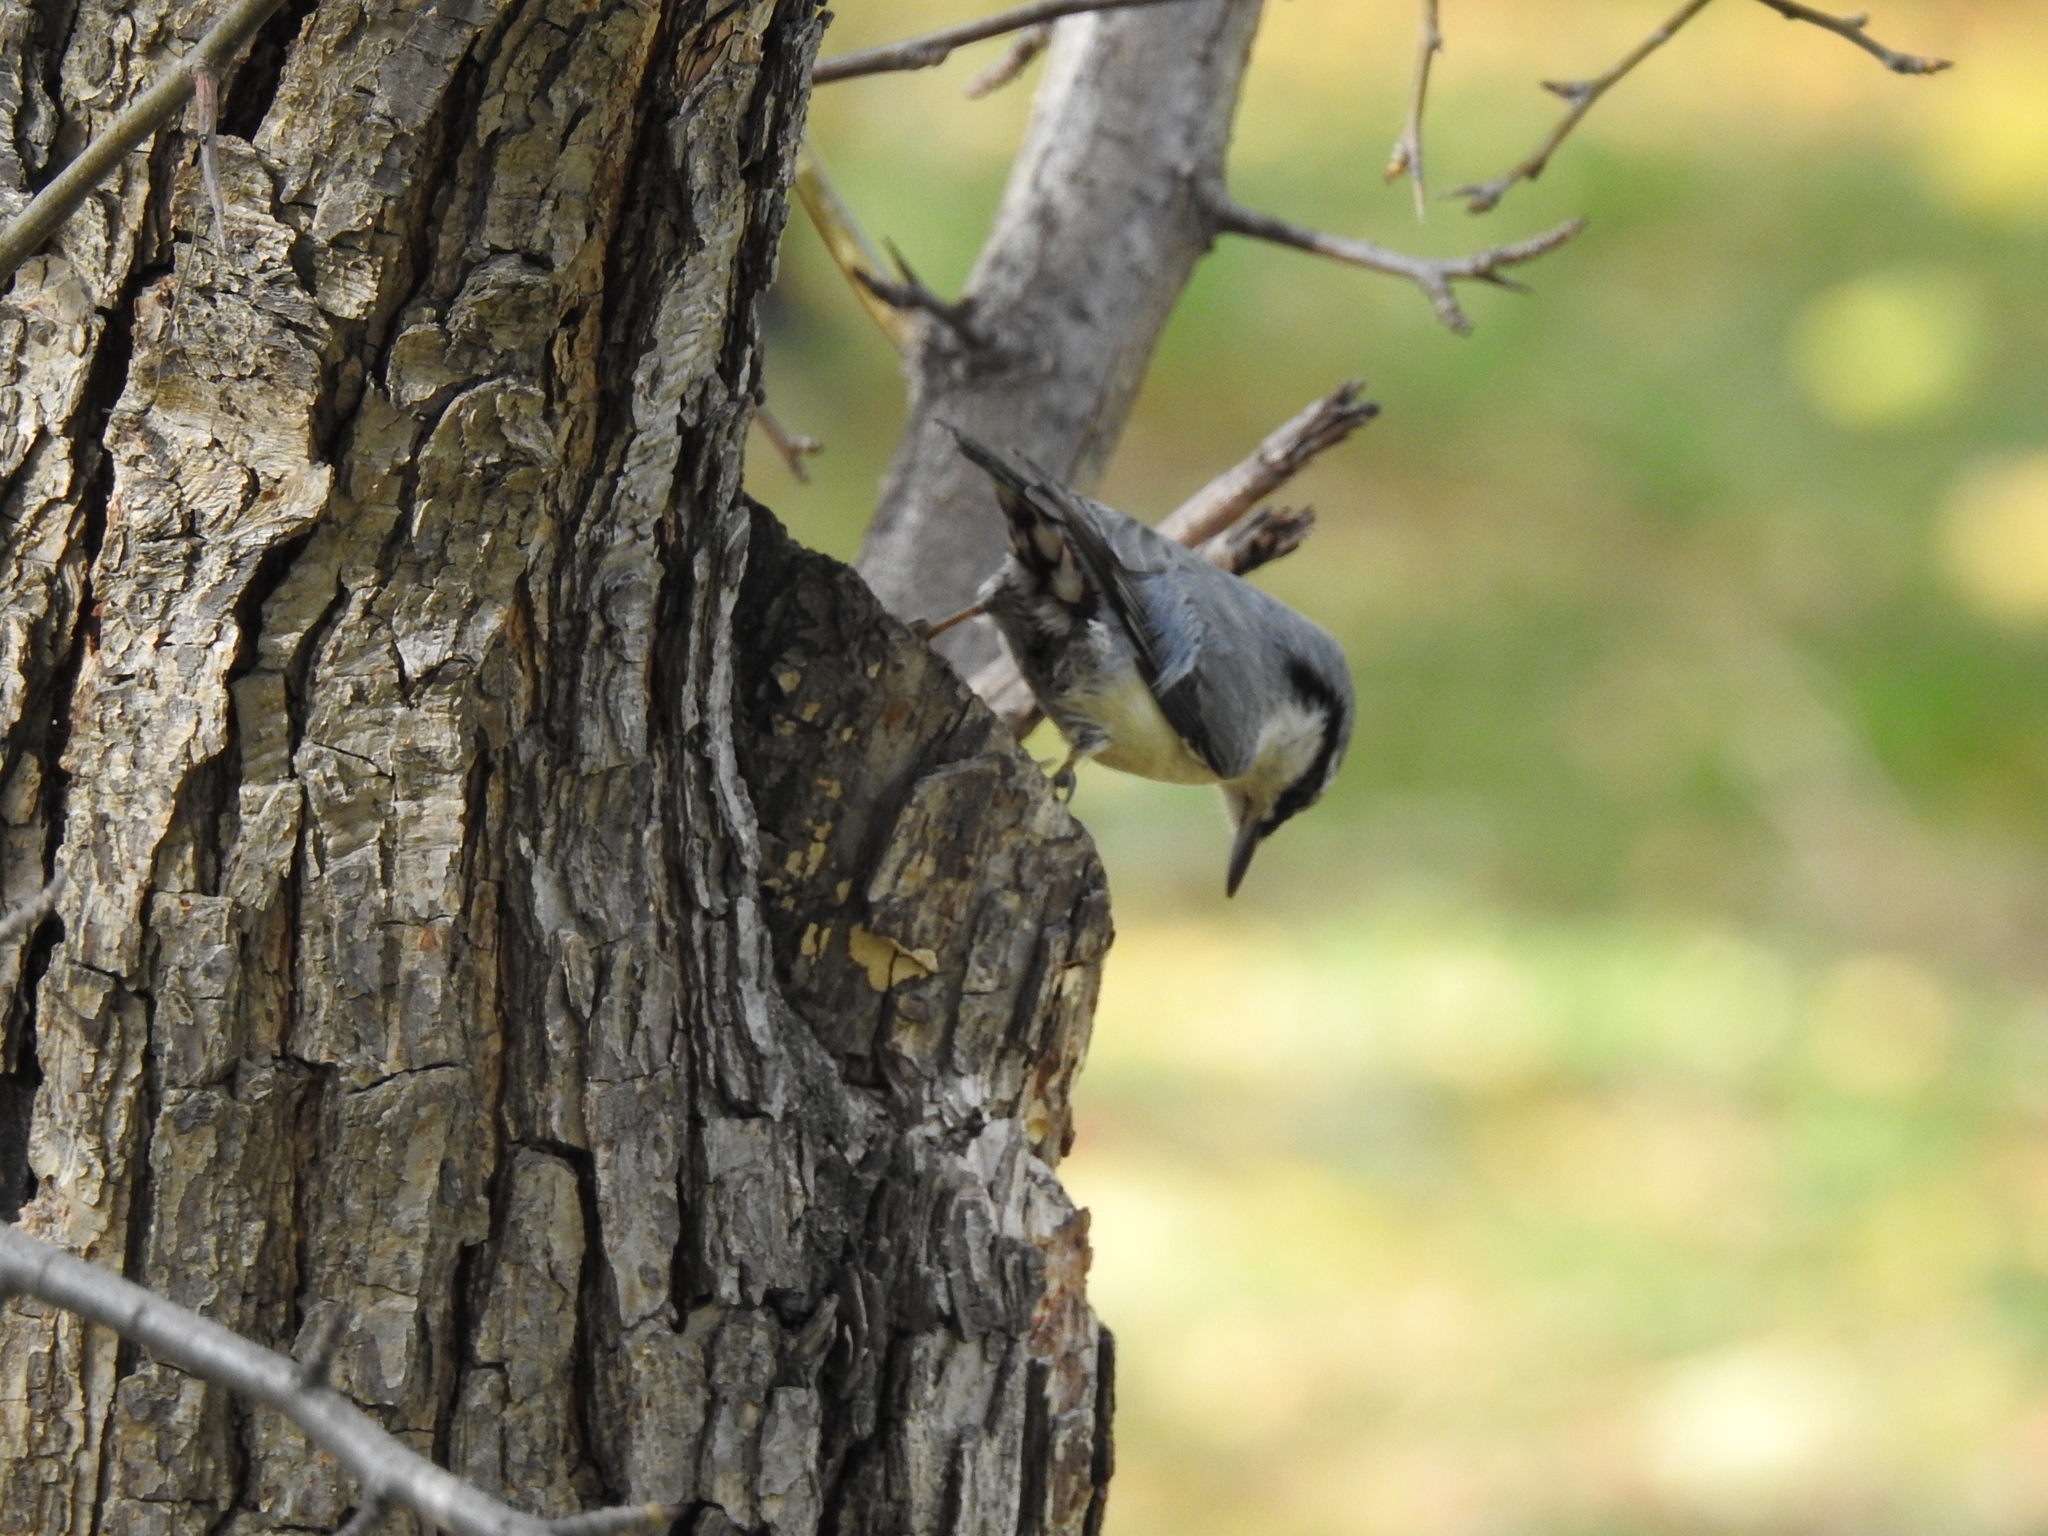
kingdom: Animalia
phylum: Chordata
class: Aves
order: Passeriformes
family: Sittidae
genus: Sitta
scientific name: Sitta europaea
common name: Eurasian nuthatch
